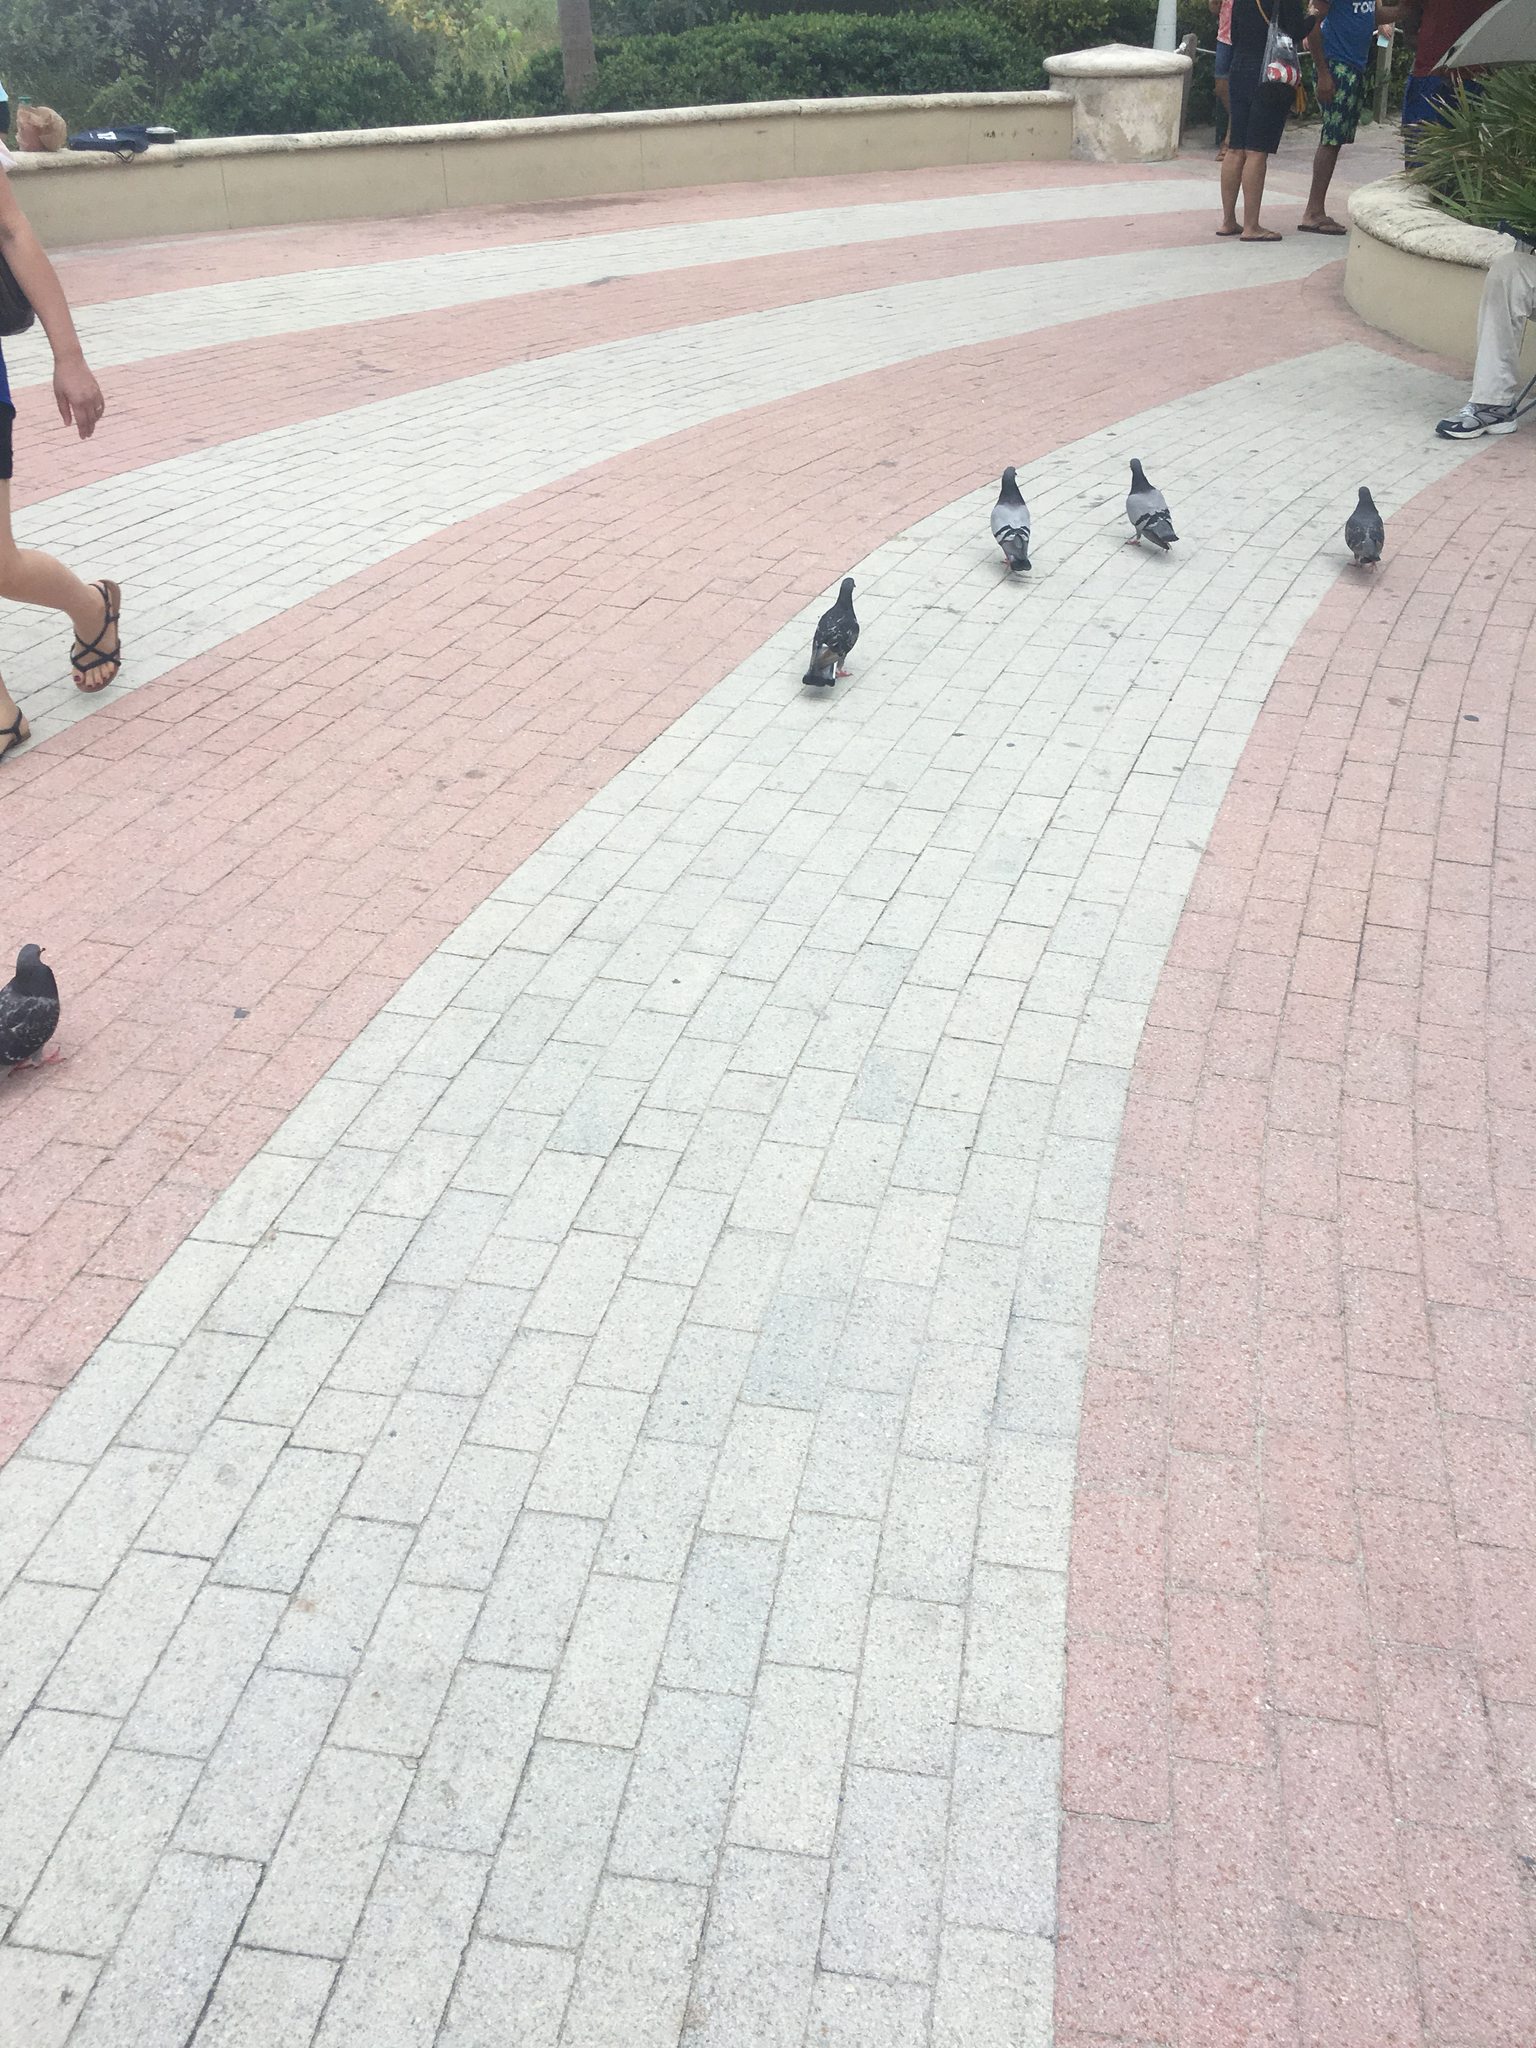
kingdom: Animalia
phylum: Chordata
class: Aves
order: Columbiformes
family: Columbidae
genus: Columba
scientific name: Columba livia
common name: Rock pigeon
